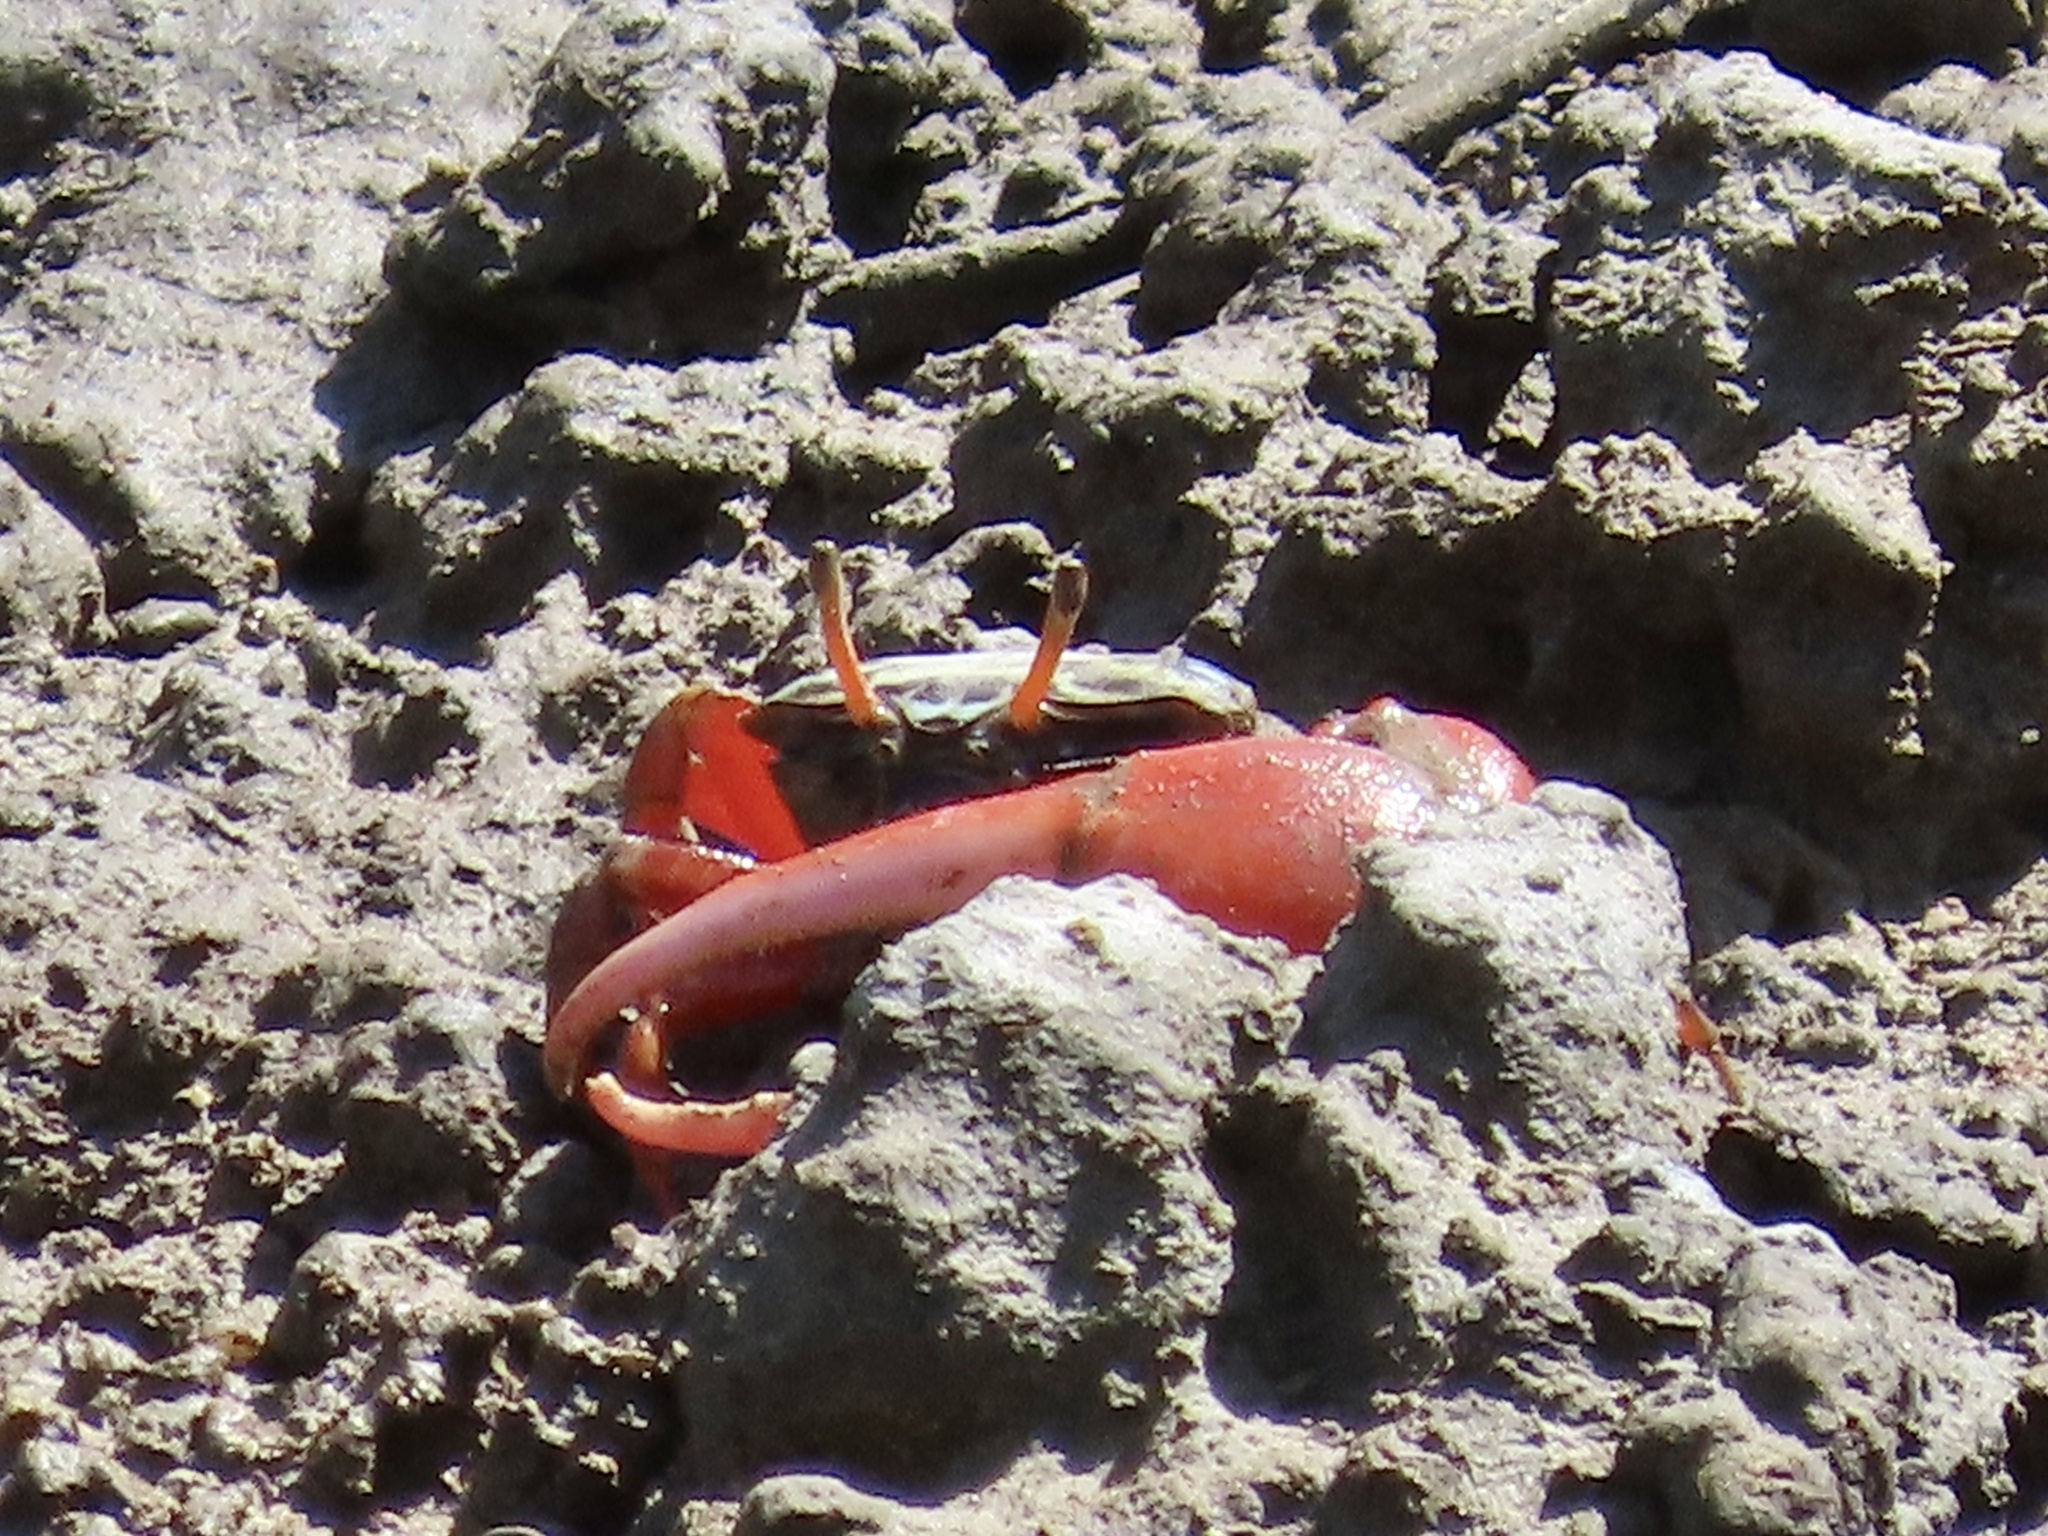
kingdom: Animalia
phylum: Arthropoda
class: Malacostraca
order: Decapoda
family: Ocypodidae
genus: Paraleptuca
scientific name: Paraleptuca splendida
